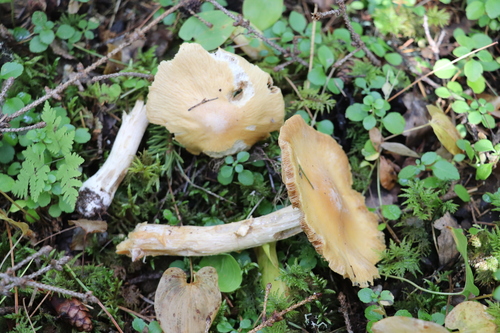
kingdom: Fungi
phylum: Basidiomycota
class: Agaricomycetes
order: Agaricales
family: Cortinariaceae
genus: Cortinarius
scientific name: Cortinarius caperatus
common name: The gypsy
